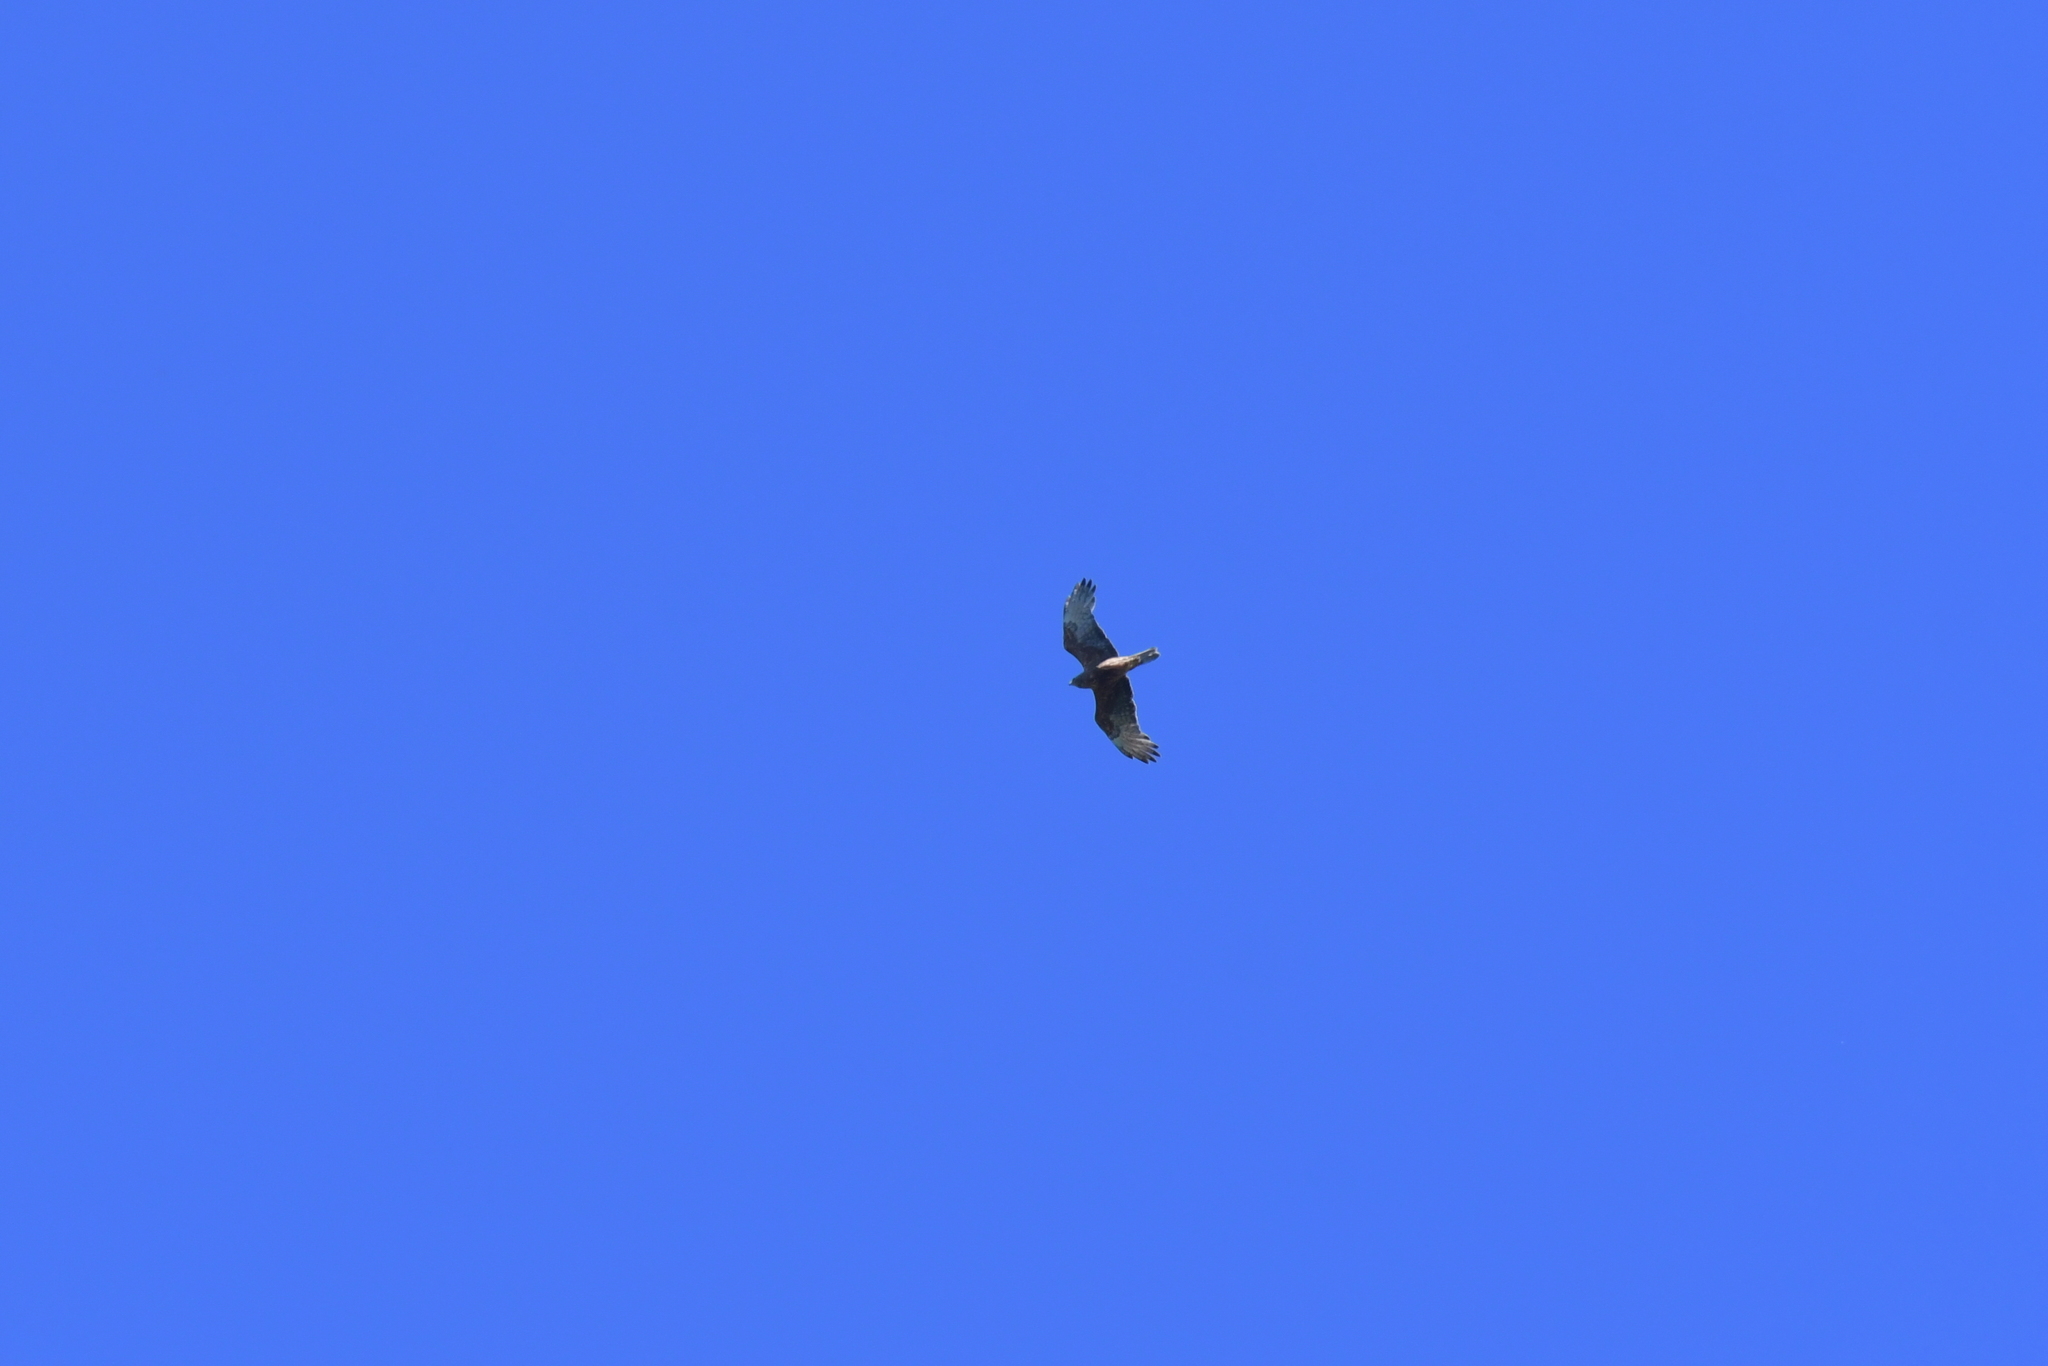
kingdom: Animalia
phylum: Chordata
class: Aves
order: Accipitriformes
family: Accipitridae
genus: Circus
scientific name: Circus approximans
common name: Swamp harrier
